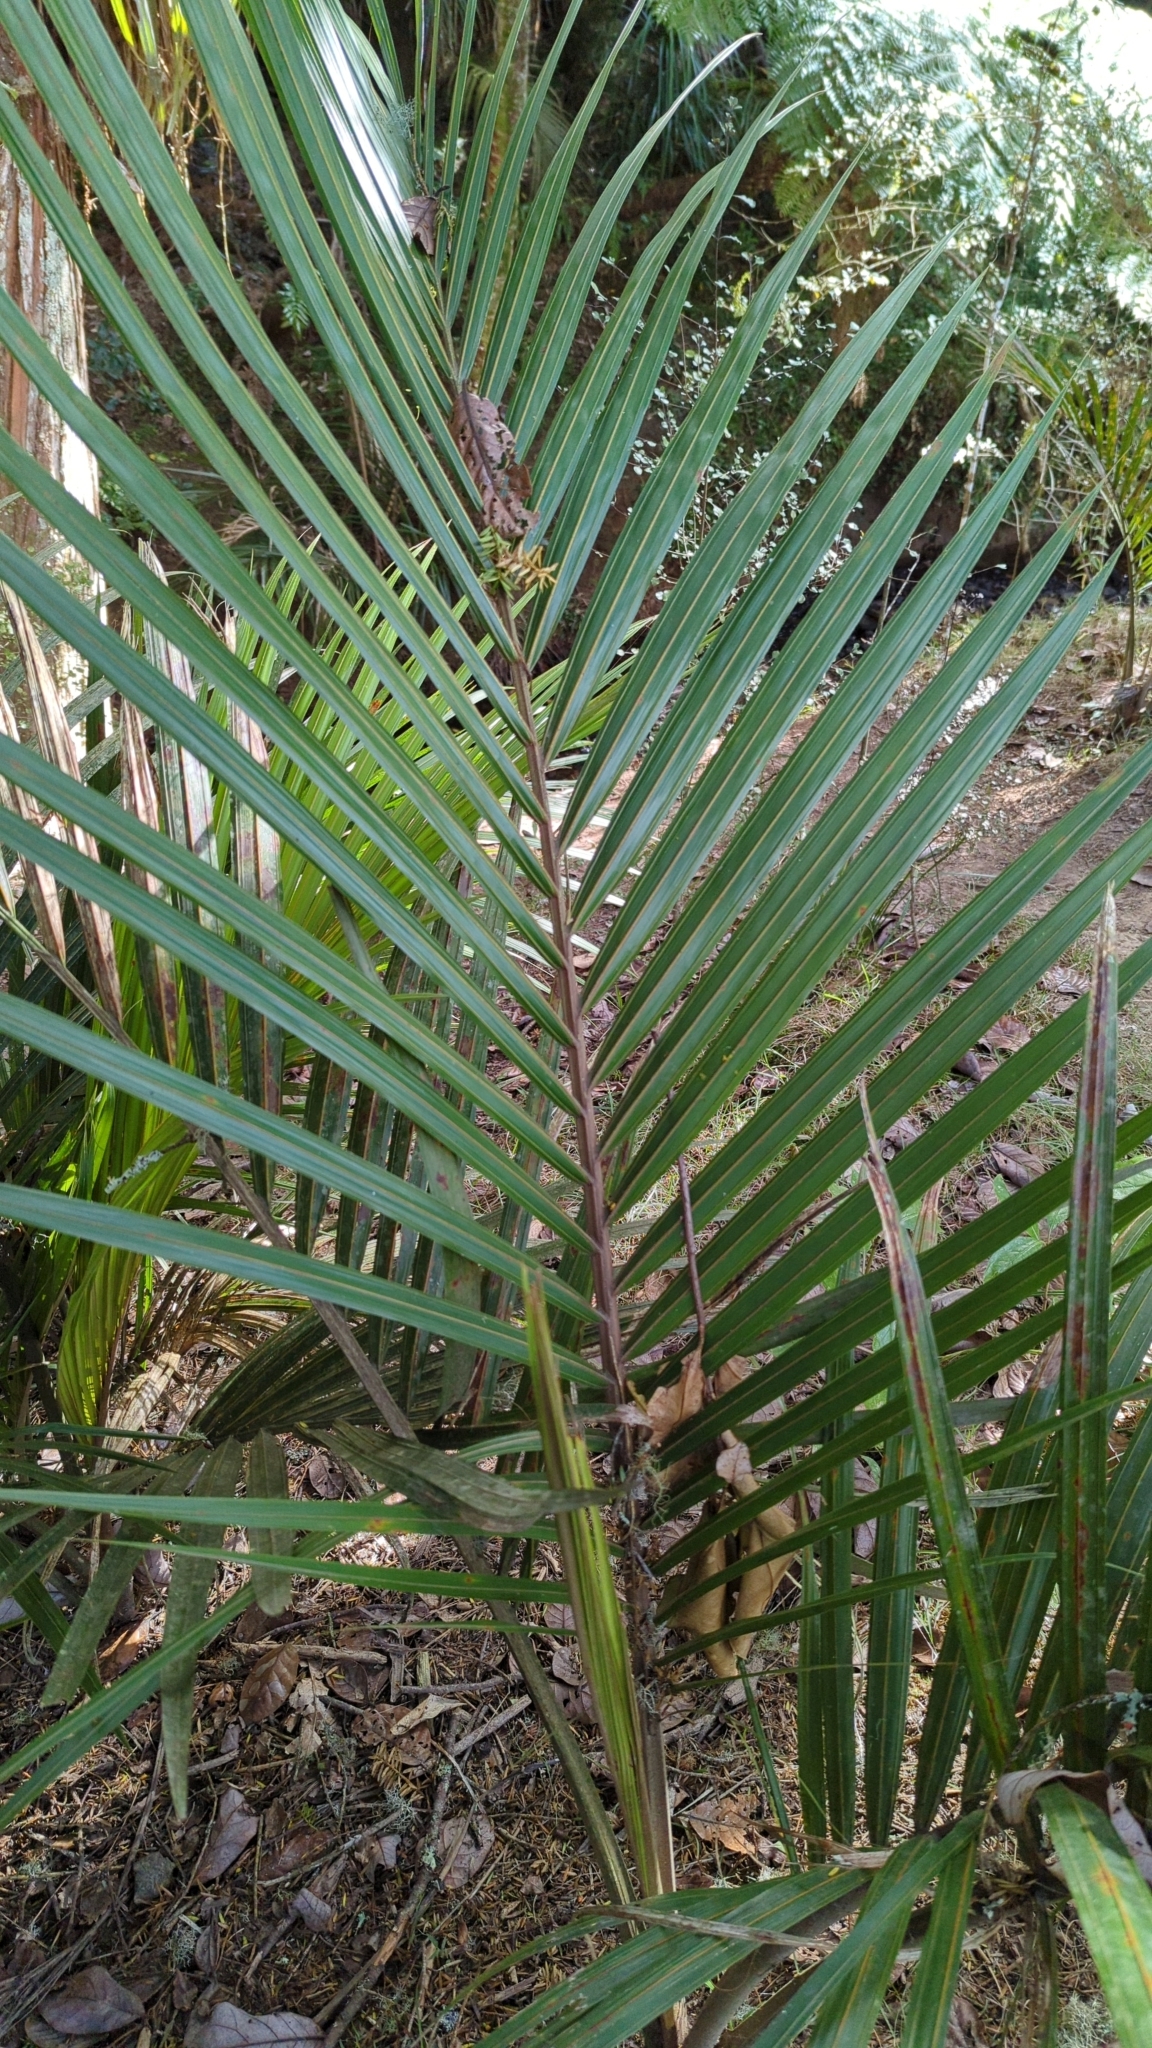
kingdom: Plantae
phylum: Tracheophyta
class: Liliopsida
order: Arecales
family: Arecaceae
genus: Rhopalostylis
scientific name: Rhopalostylis sapida
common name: Feather-duster palm
